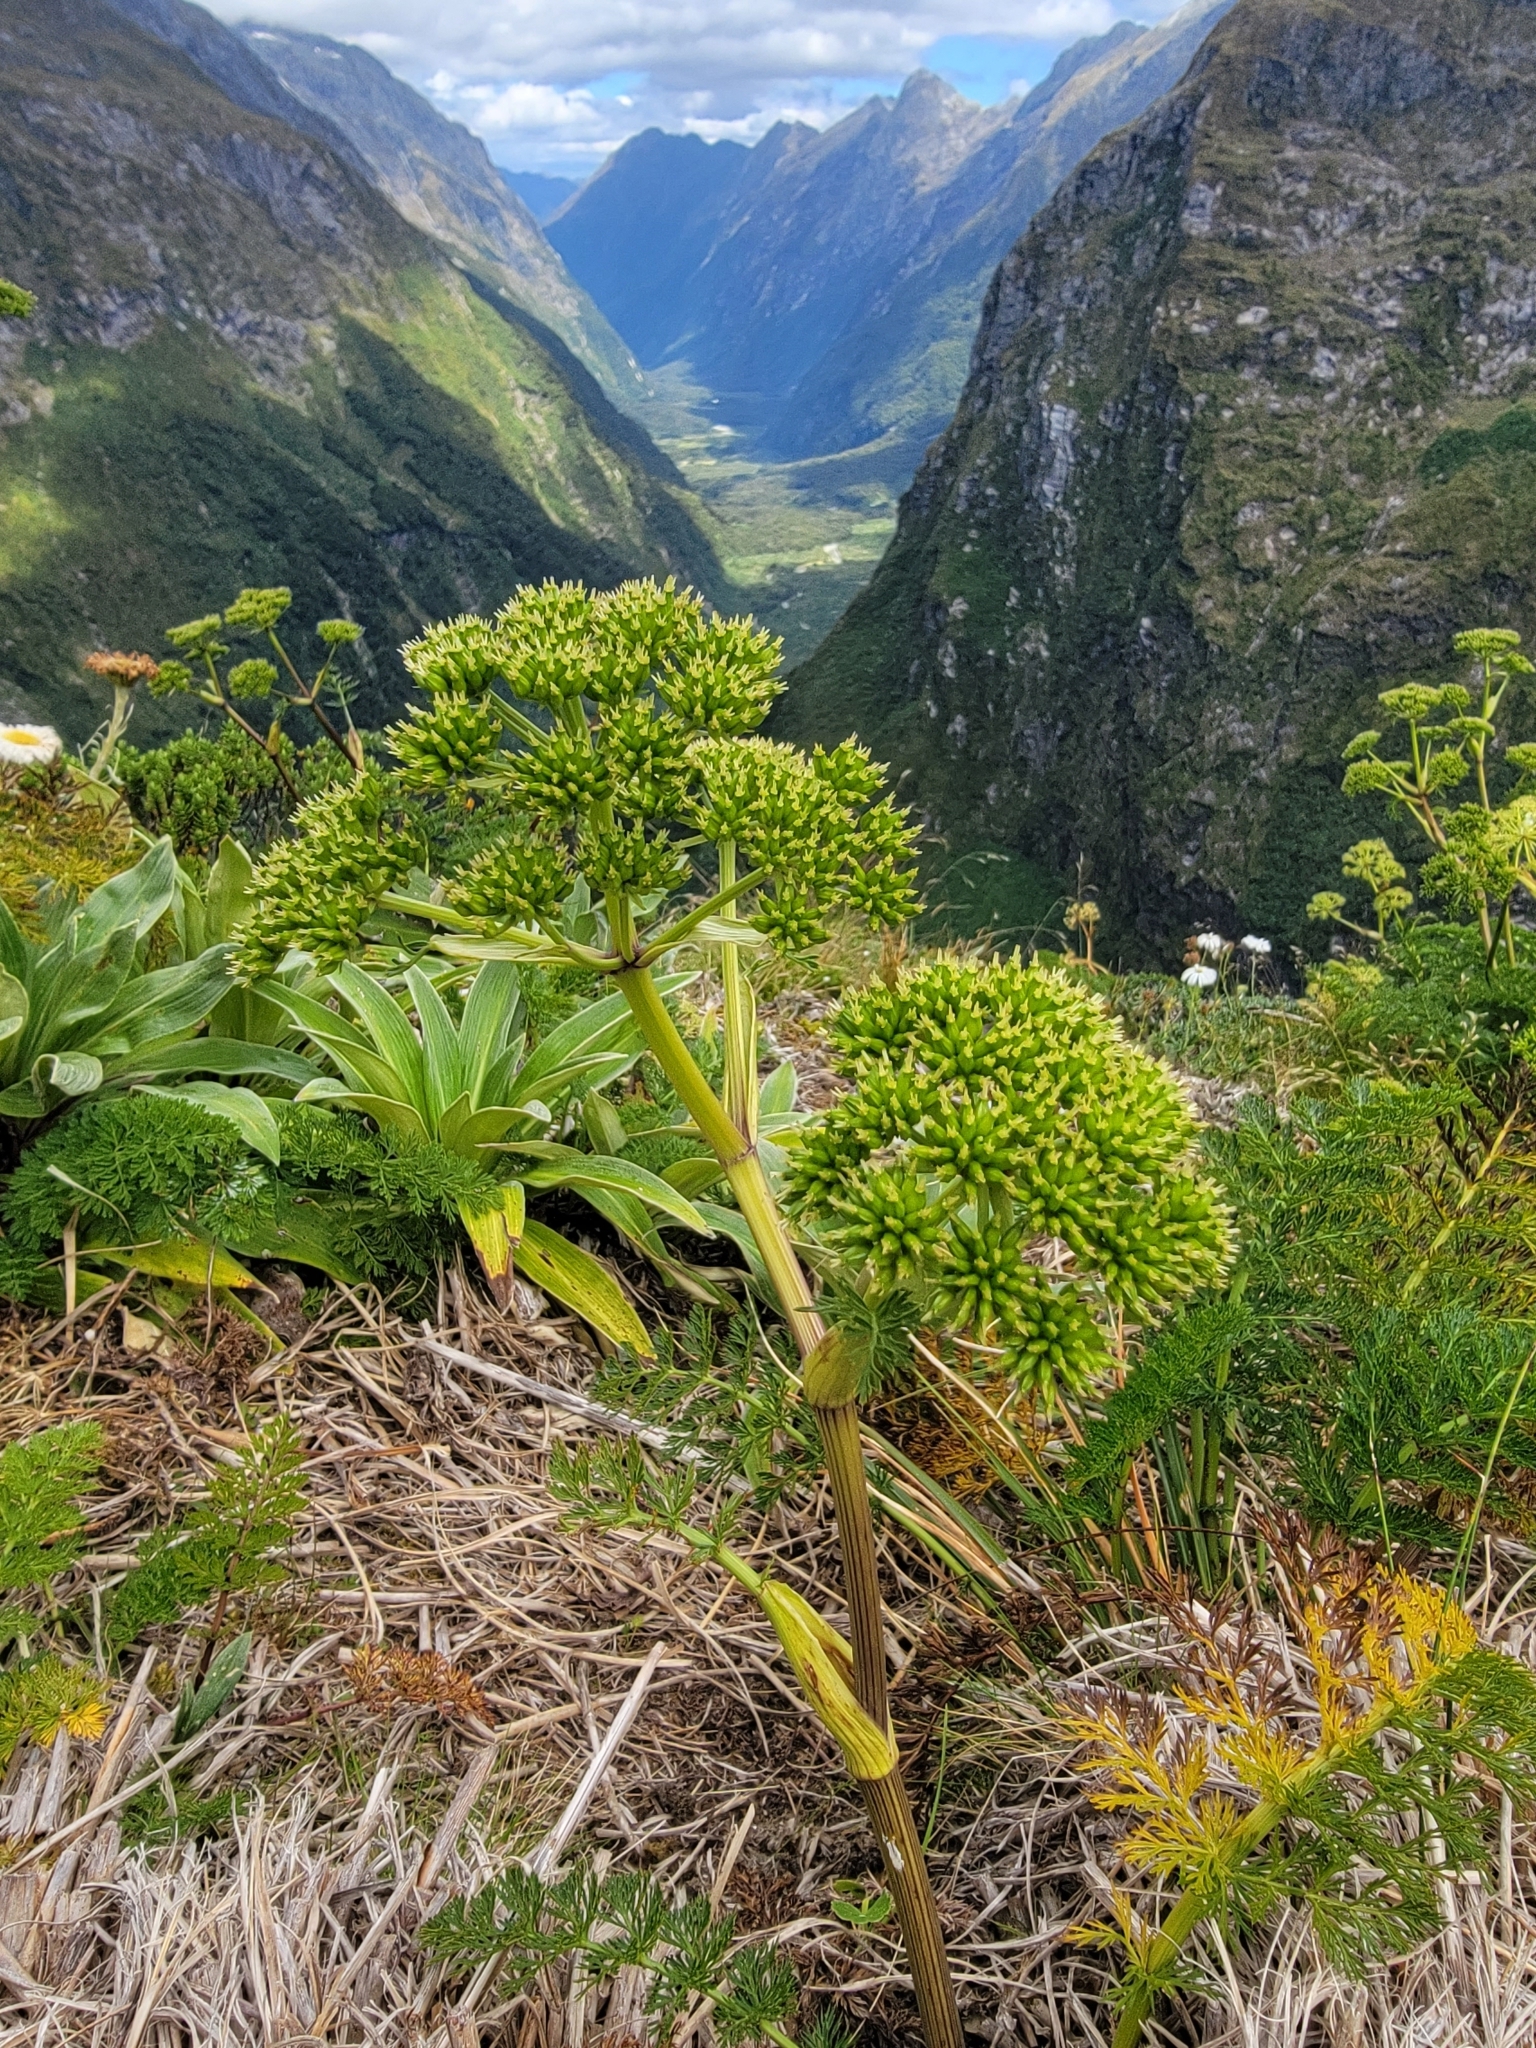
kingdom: Plantae
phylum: Tracheophyta
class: Magnoliopsida
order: Apiales
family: Apiaceae
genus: Anisotome
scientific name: Anisotome haastii
